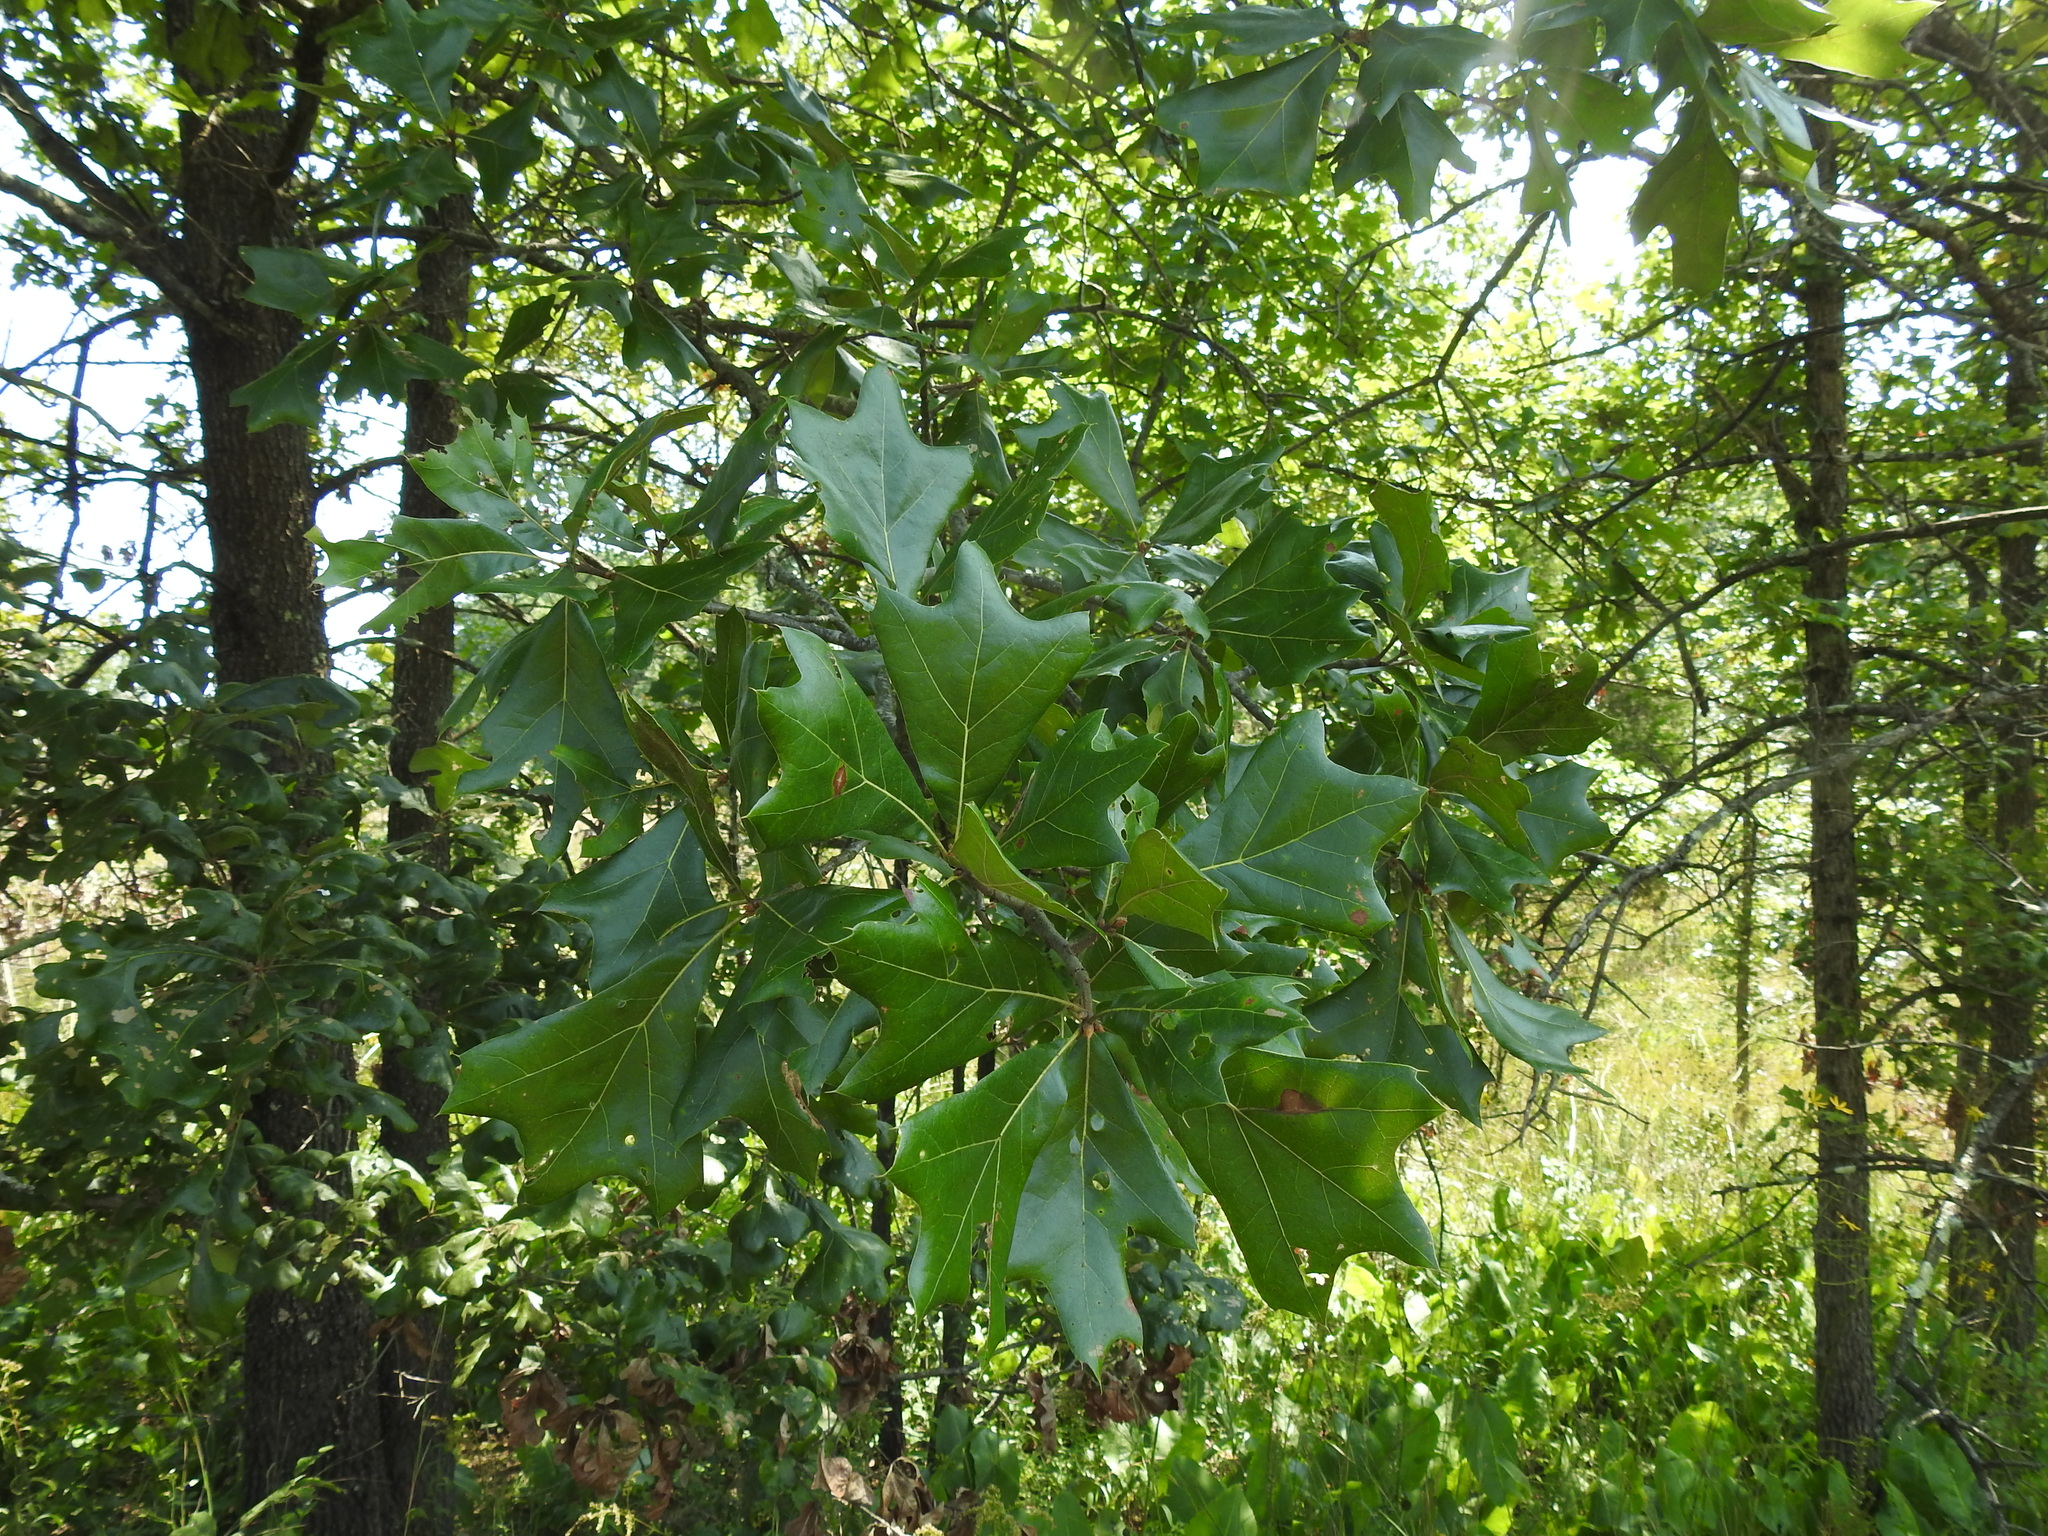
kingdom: Plantae
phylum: Tracheophyta
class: Magnoliopsida
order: Fagales
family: Fagaceae
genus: Quercus
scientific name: Quercus marilandica
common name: Blackjack oak
